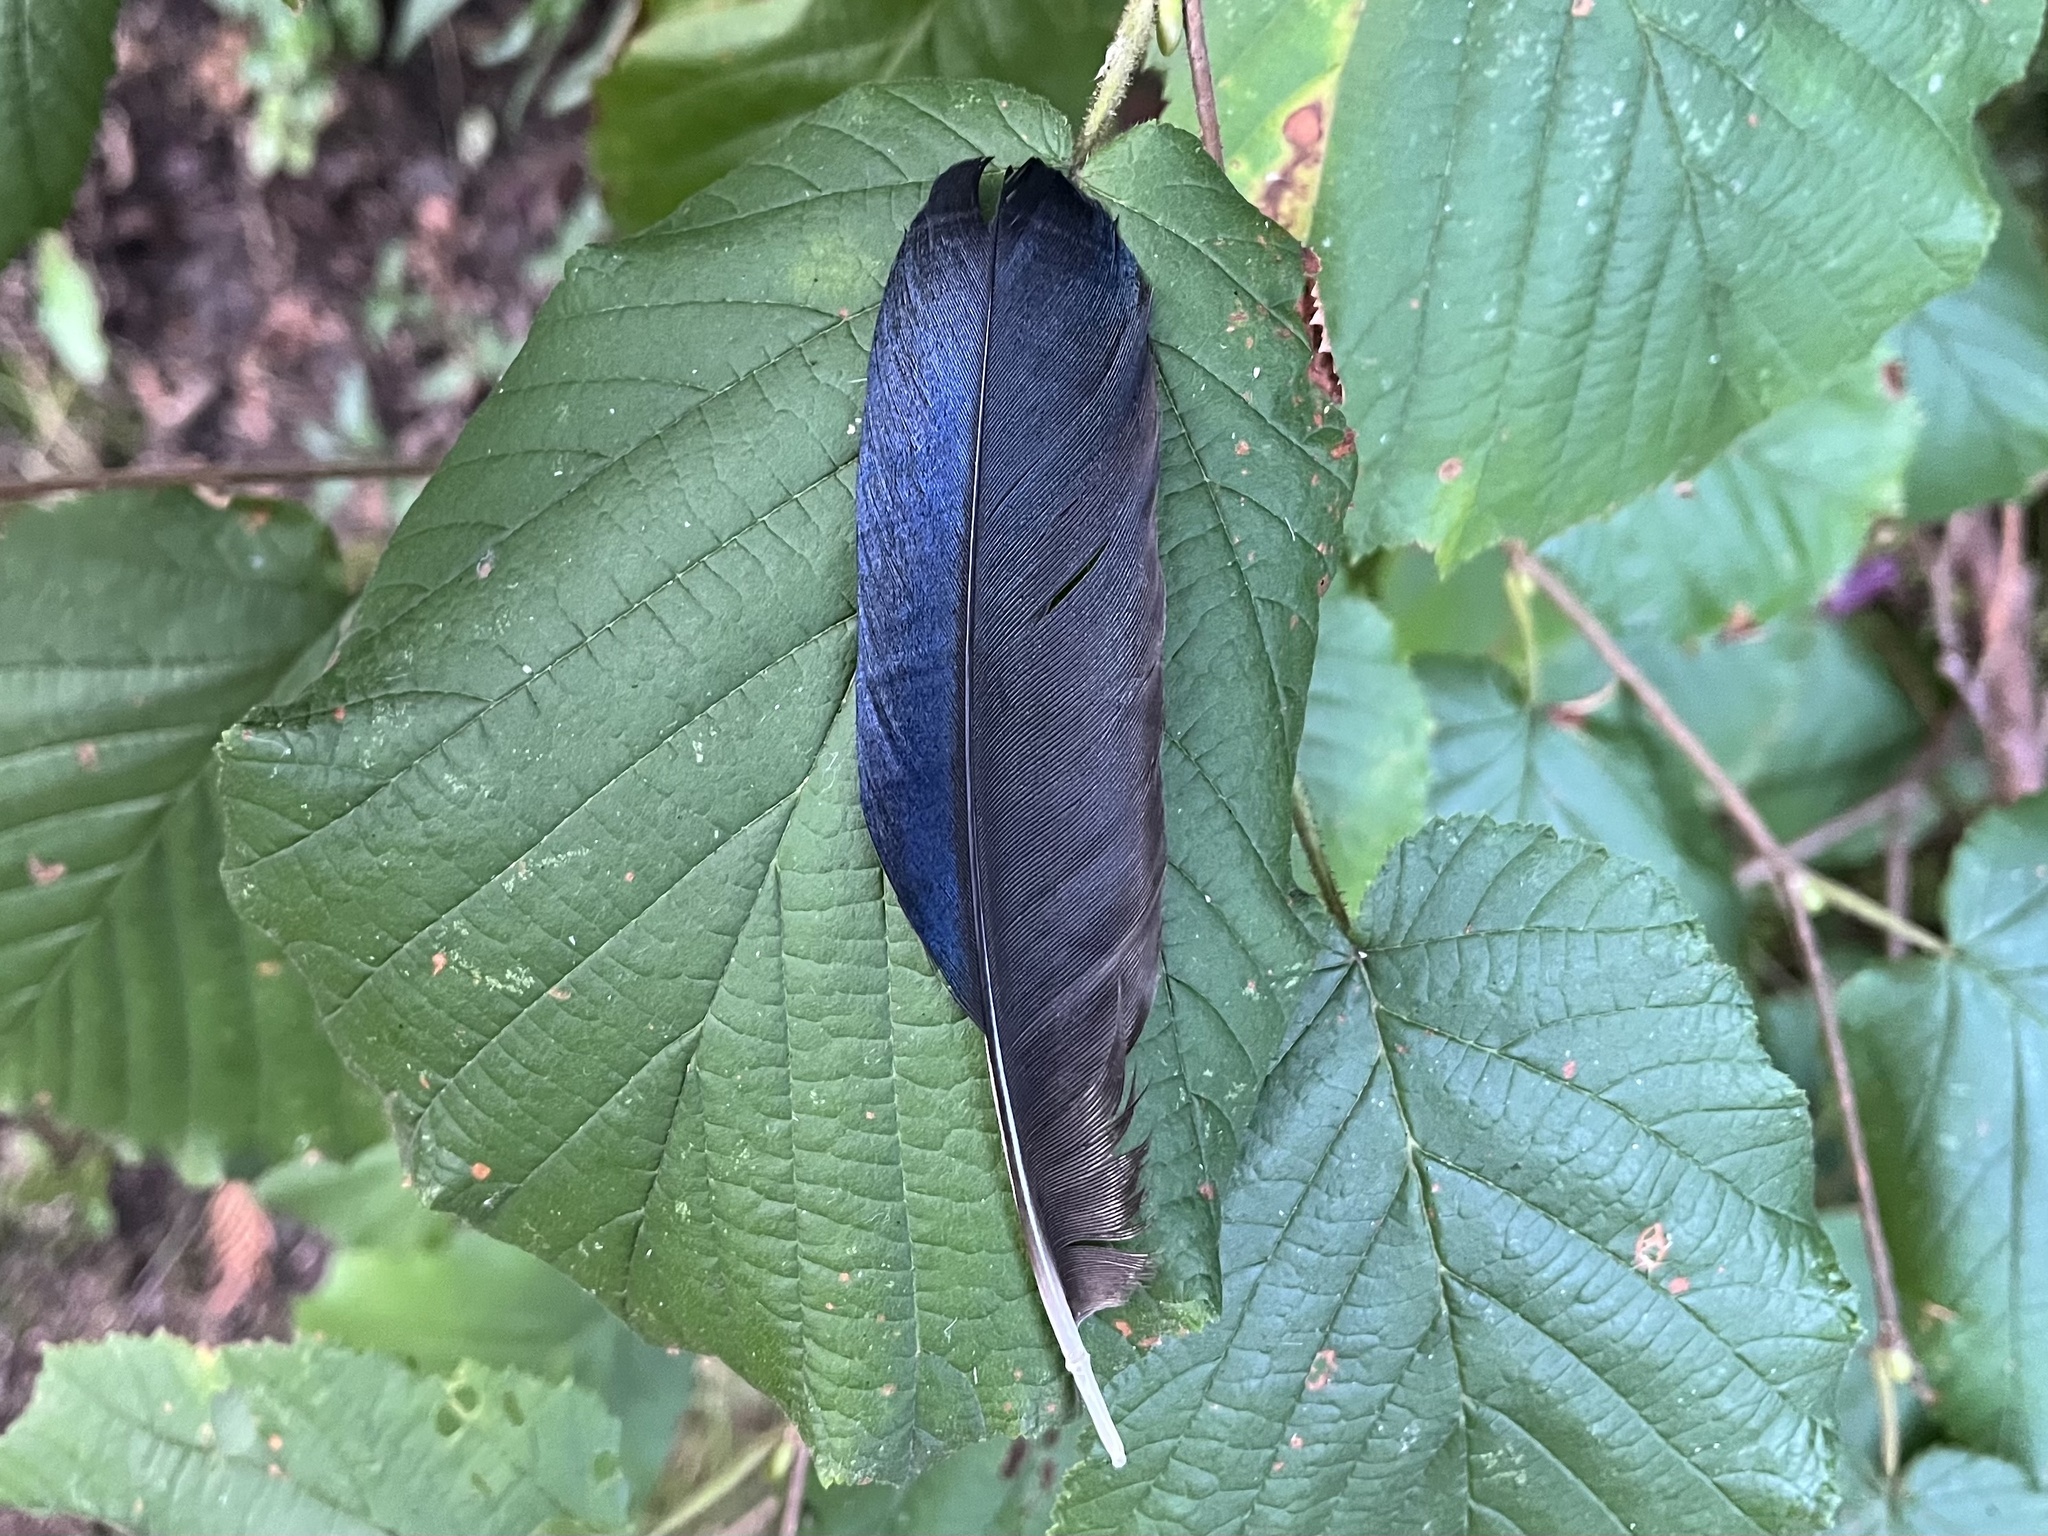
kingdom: Animalia
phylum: Chordata
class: Aves
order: Passeriformes
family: Corvidae
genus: Pica
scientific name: Pica pica
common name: Eurasian magpie
